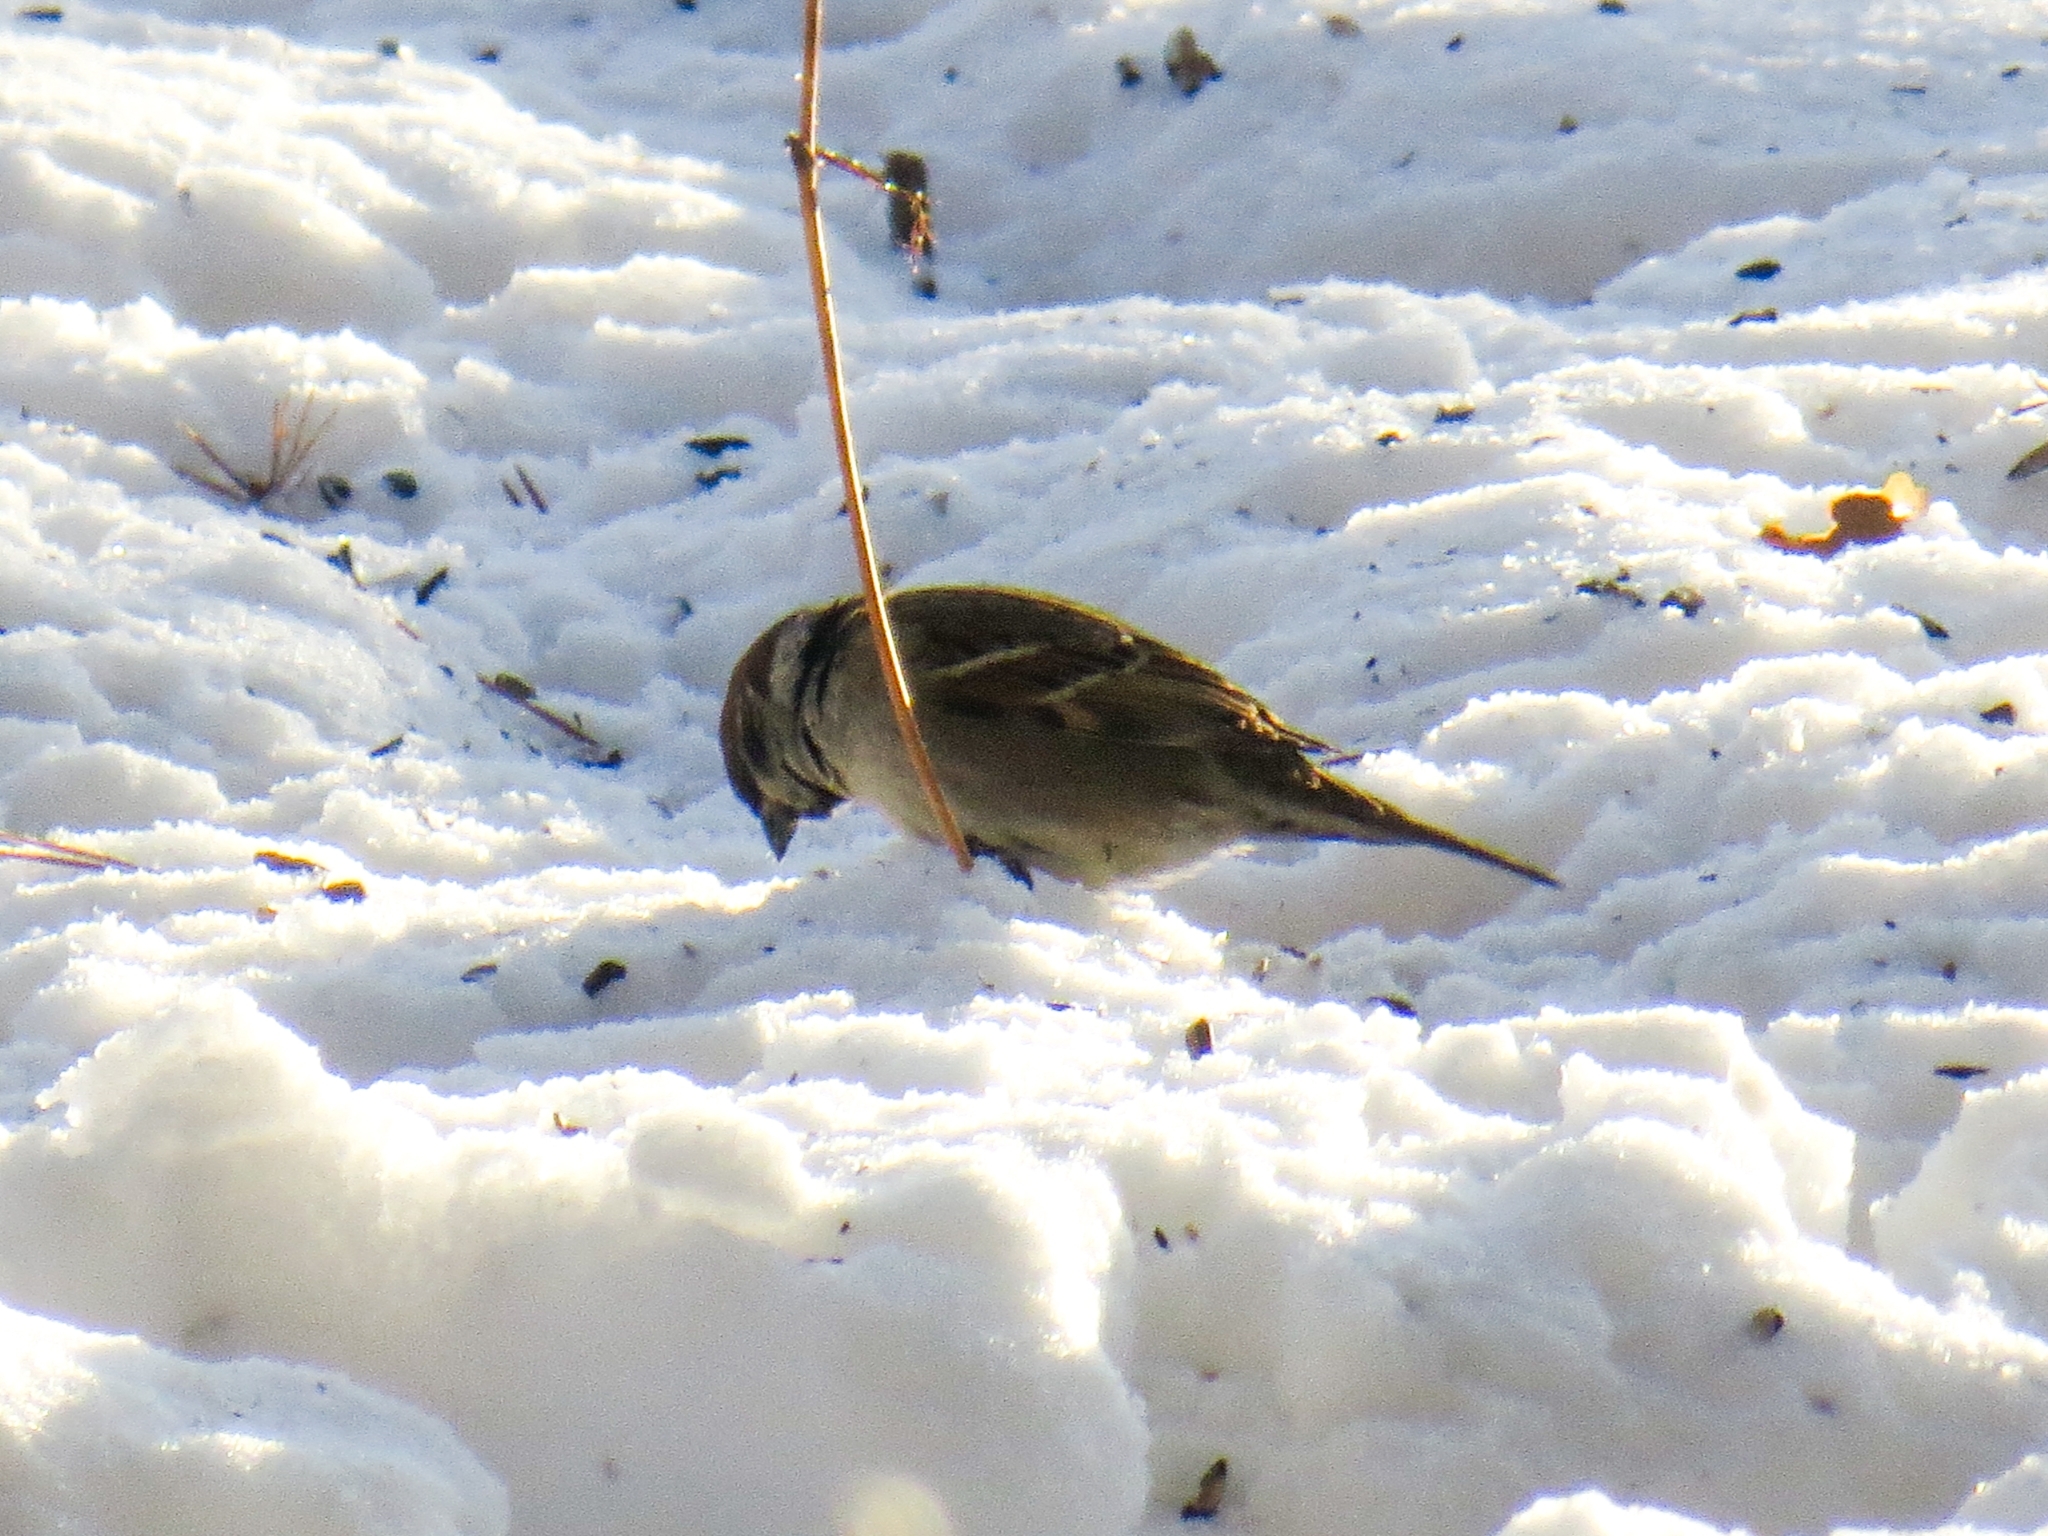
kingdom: Animalia
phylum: Chordata
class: Aves
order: Passeriformes
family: Passeridae
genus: Passer
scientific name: Passer montanus
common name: Eurasian tree sparrow
